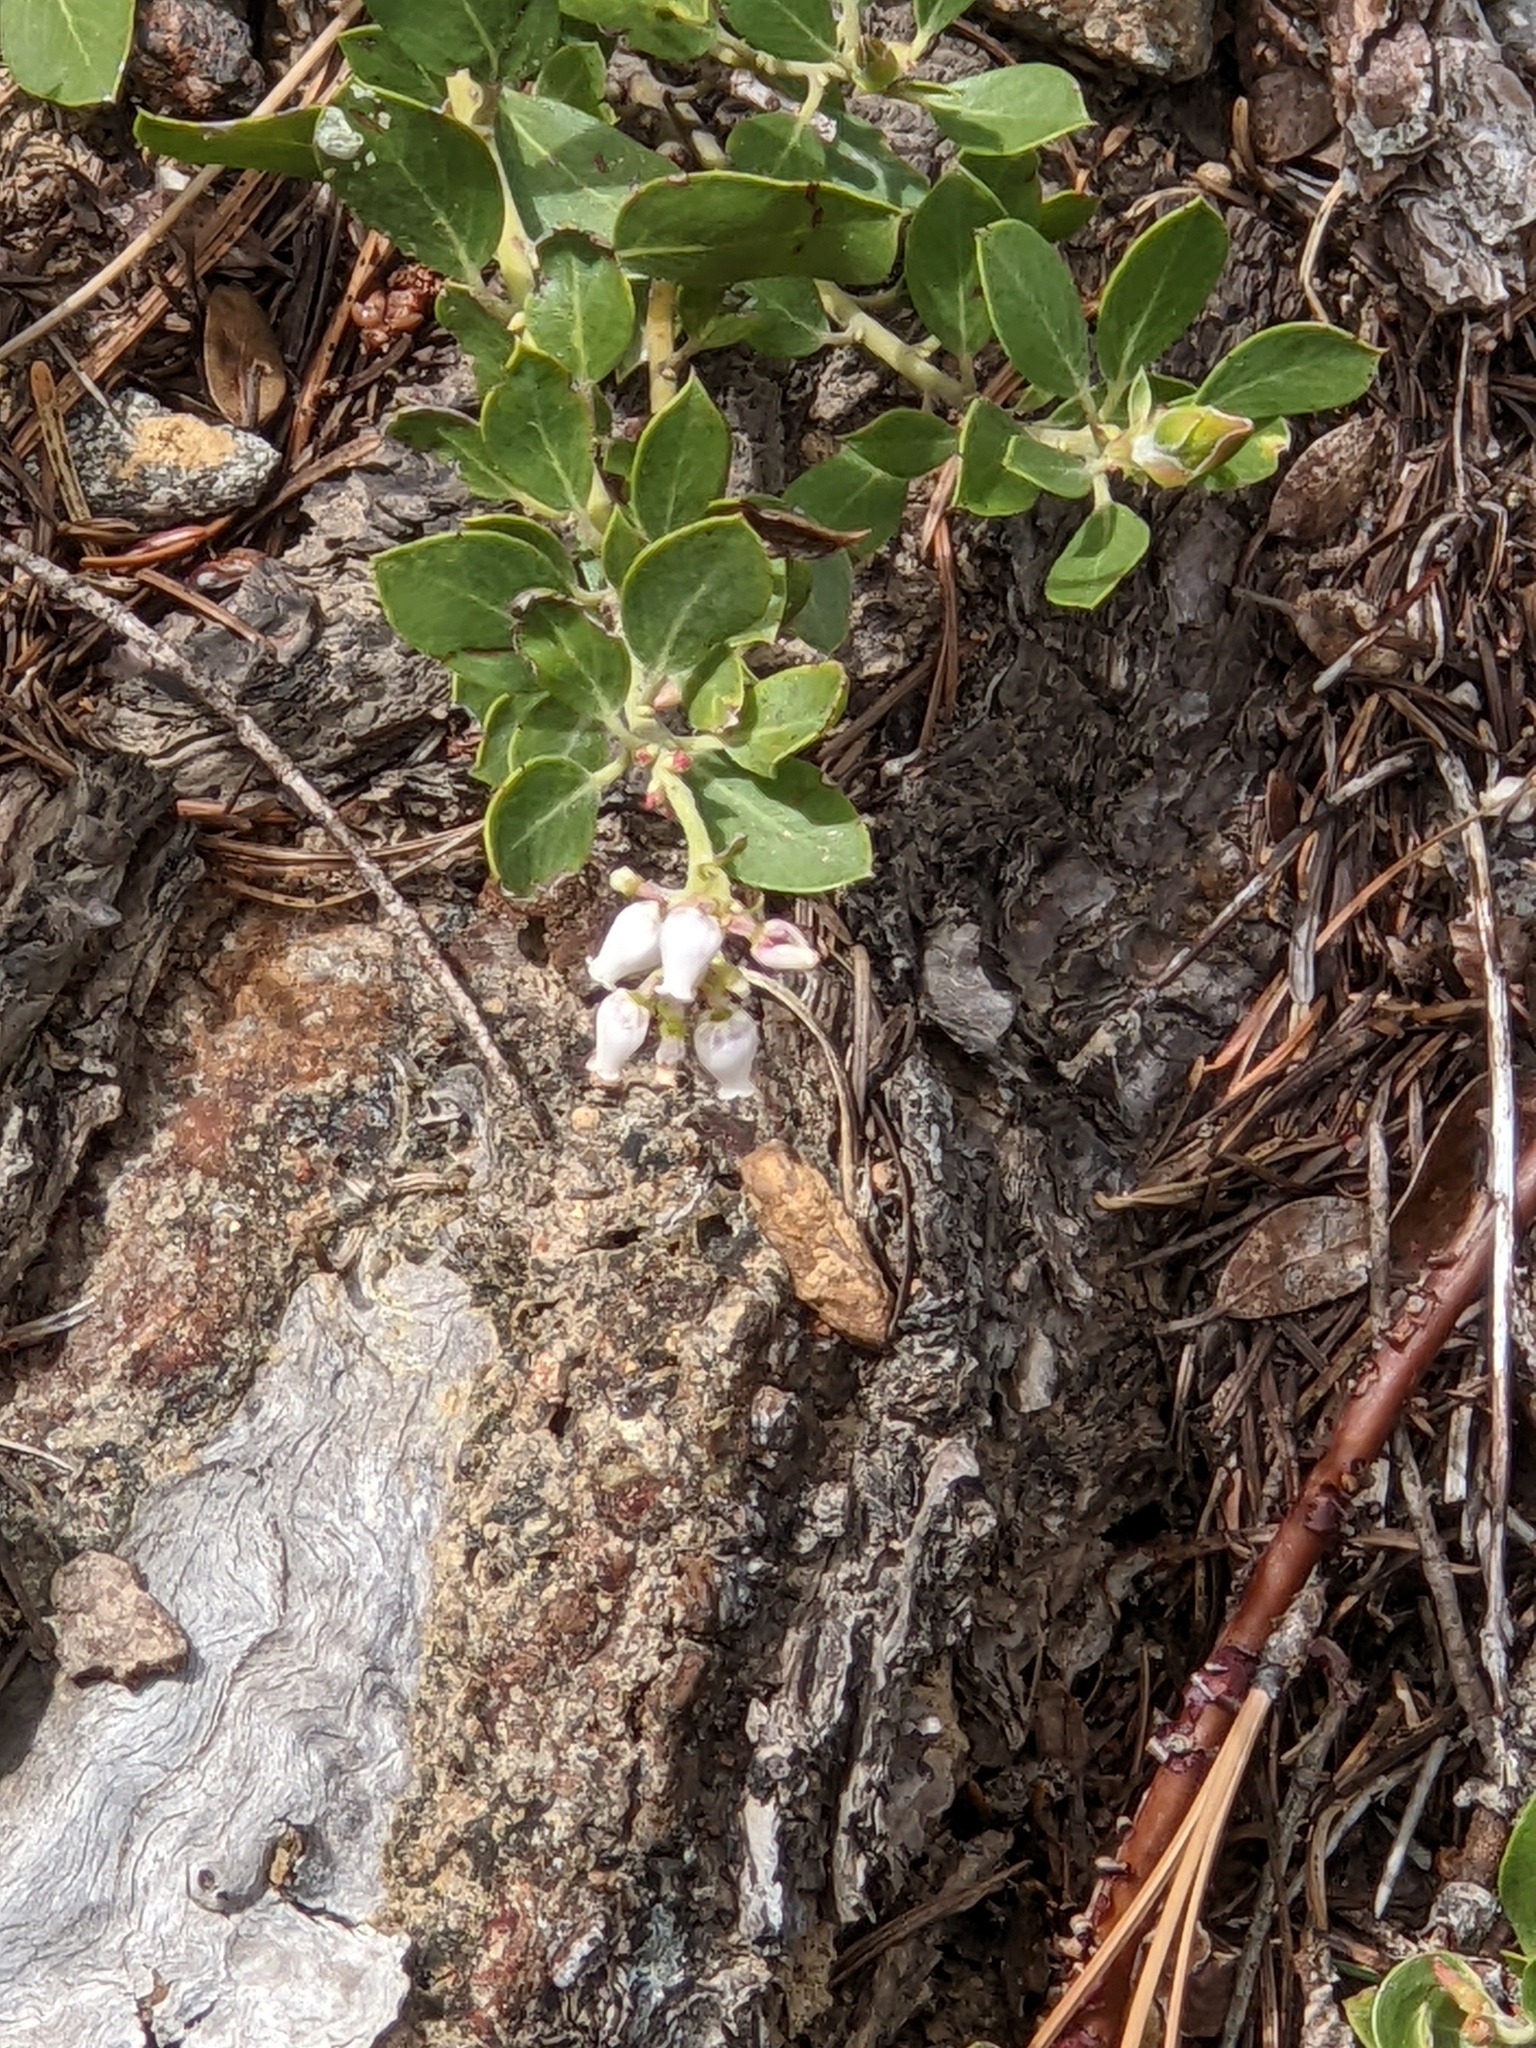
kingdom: Plantae
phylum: Tracheophyta
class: Magnoliopsida
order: Ericales
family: Ericaceae
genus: Arctostaphylos
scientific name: Arctostaphylos nevadensis
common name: Pinemat manzanita
